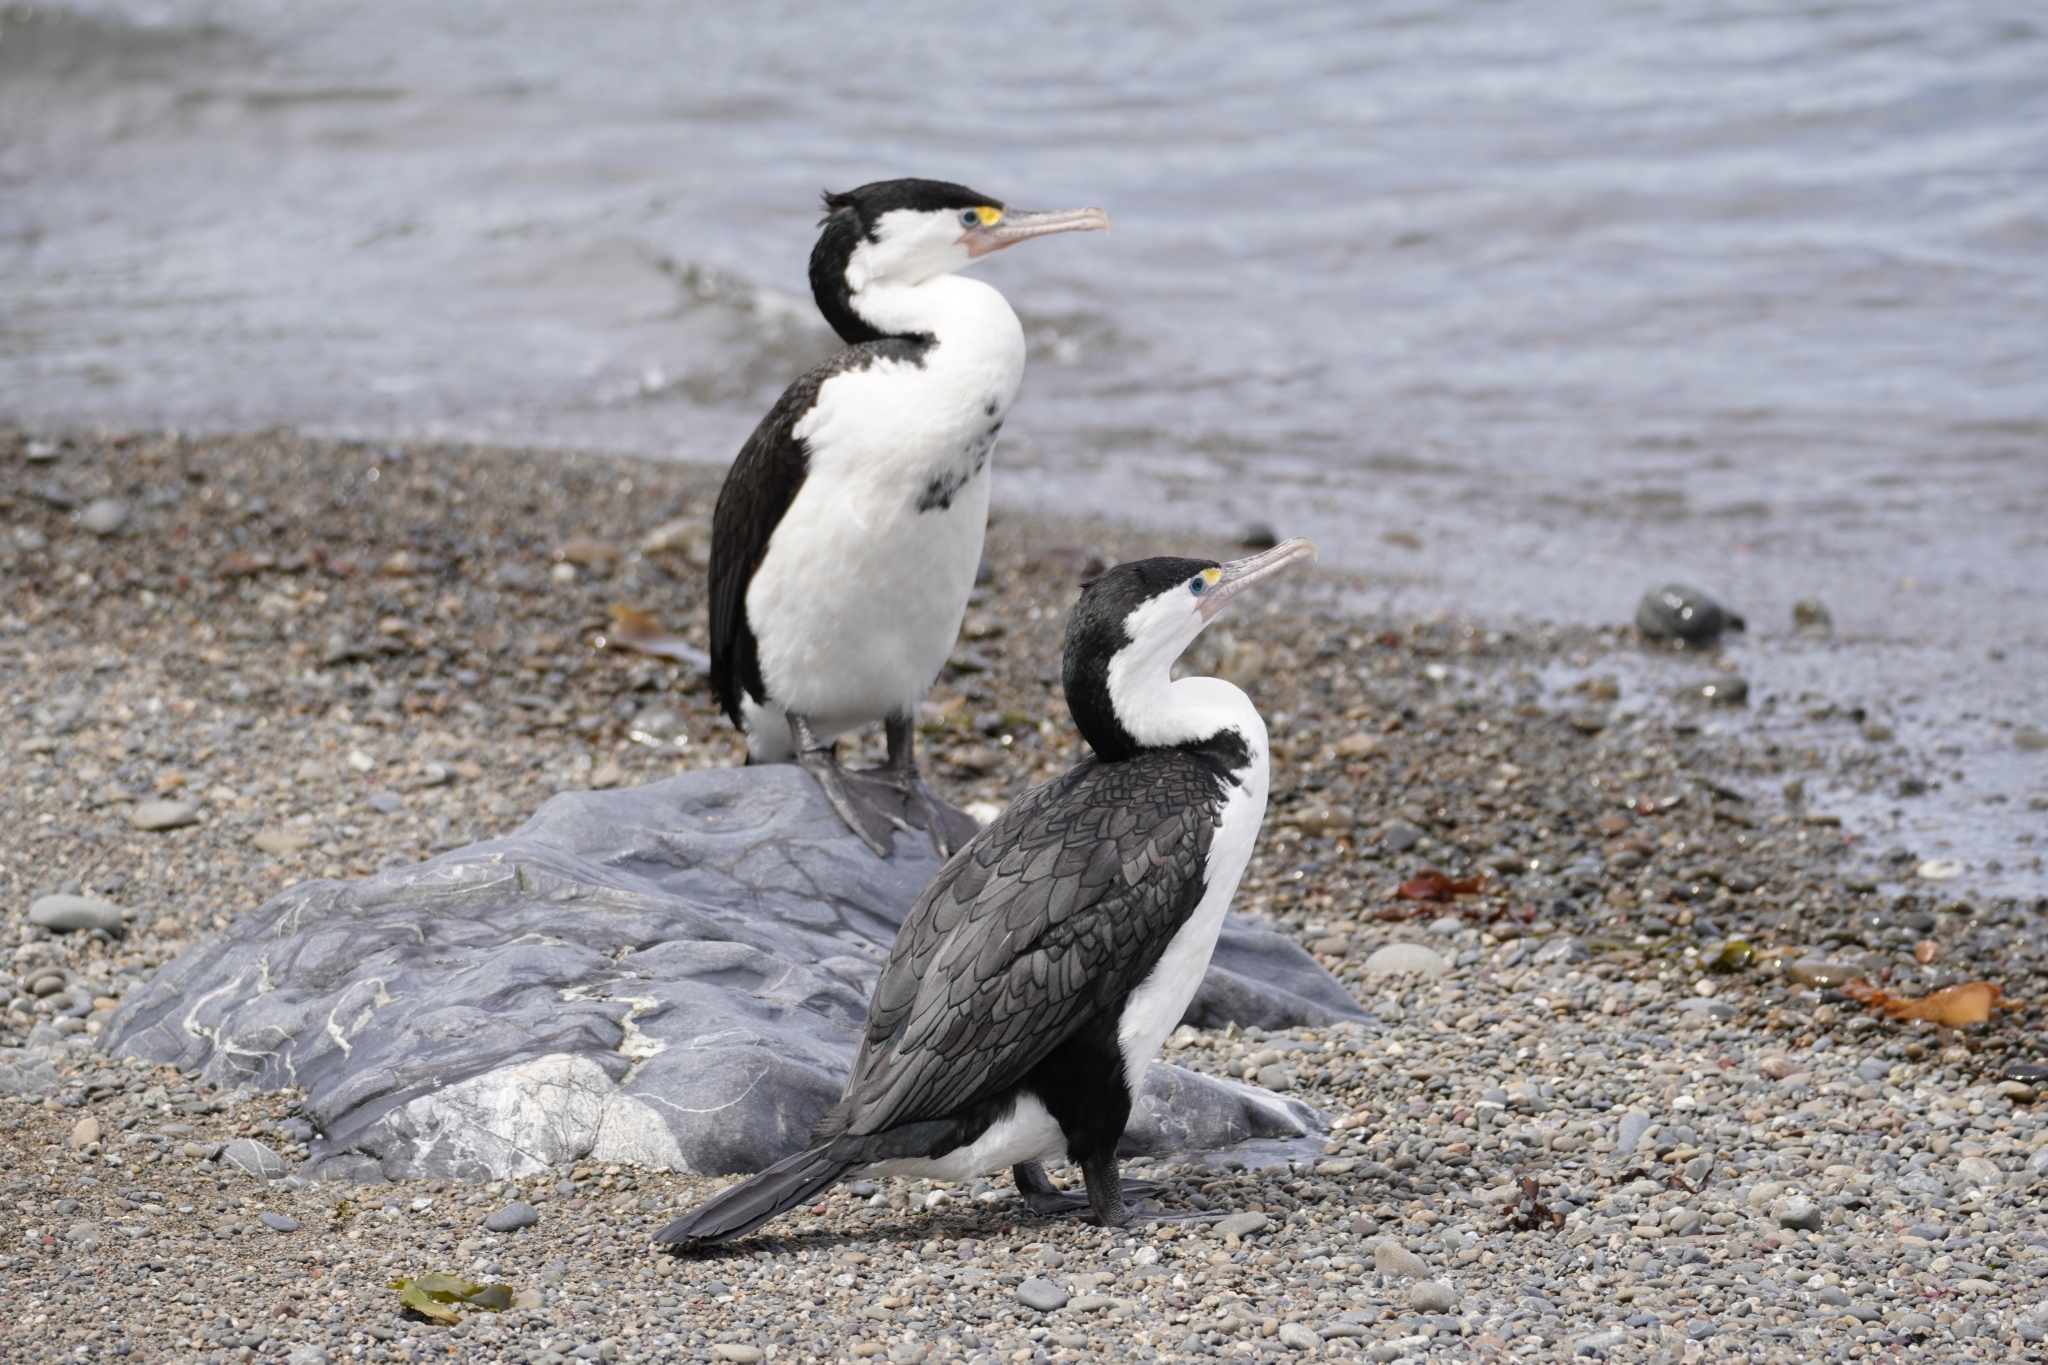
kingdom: Animalia
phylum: Chordata
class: Aves
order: Suliformes
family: Phalacrocoracidae
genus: Phalacrocorax
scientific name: Phalacrocorax varius
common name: Pied cormorant
